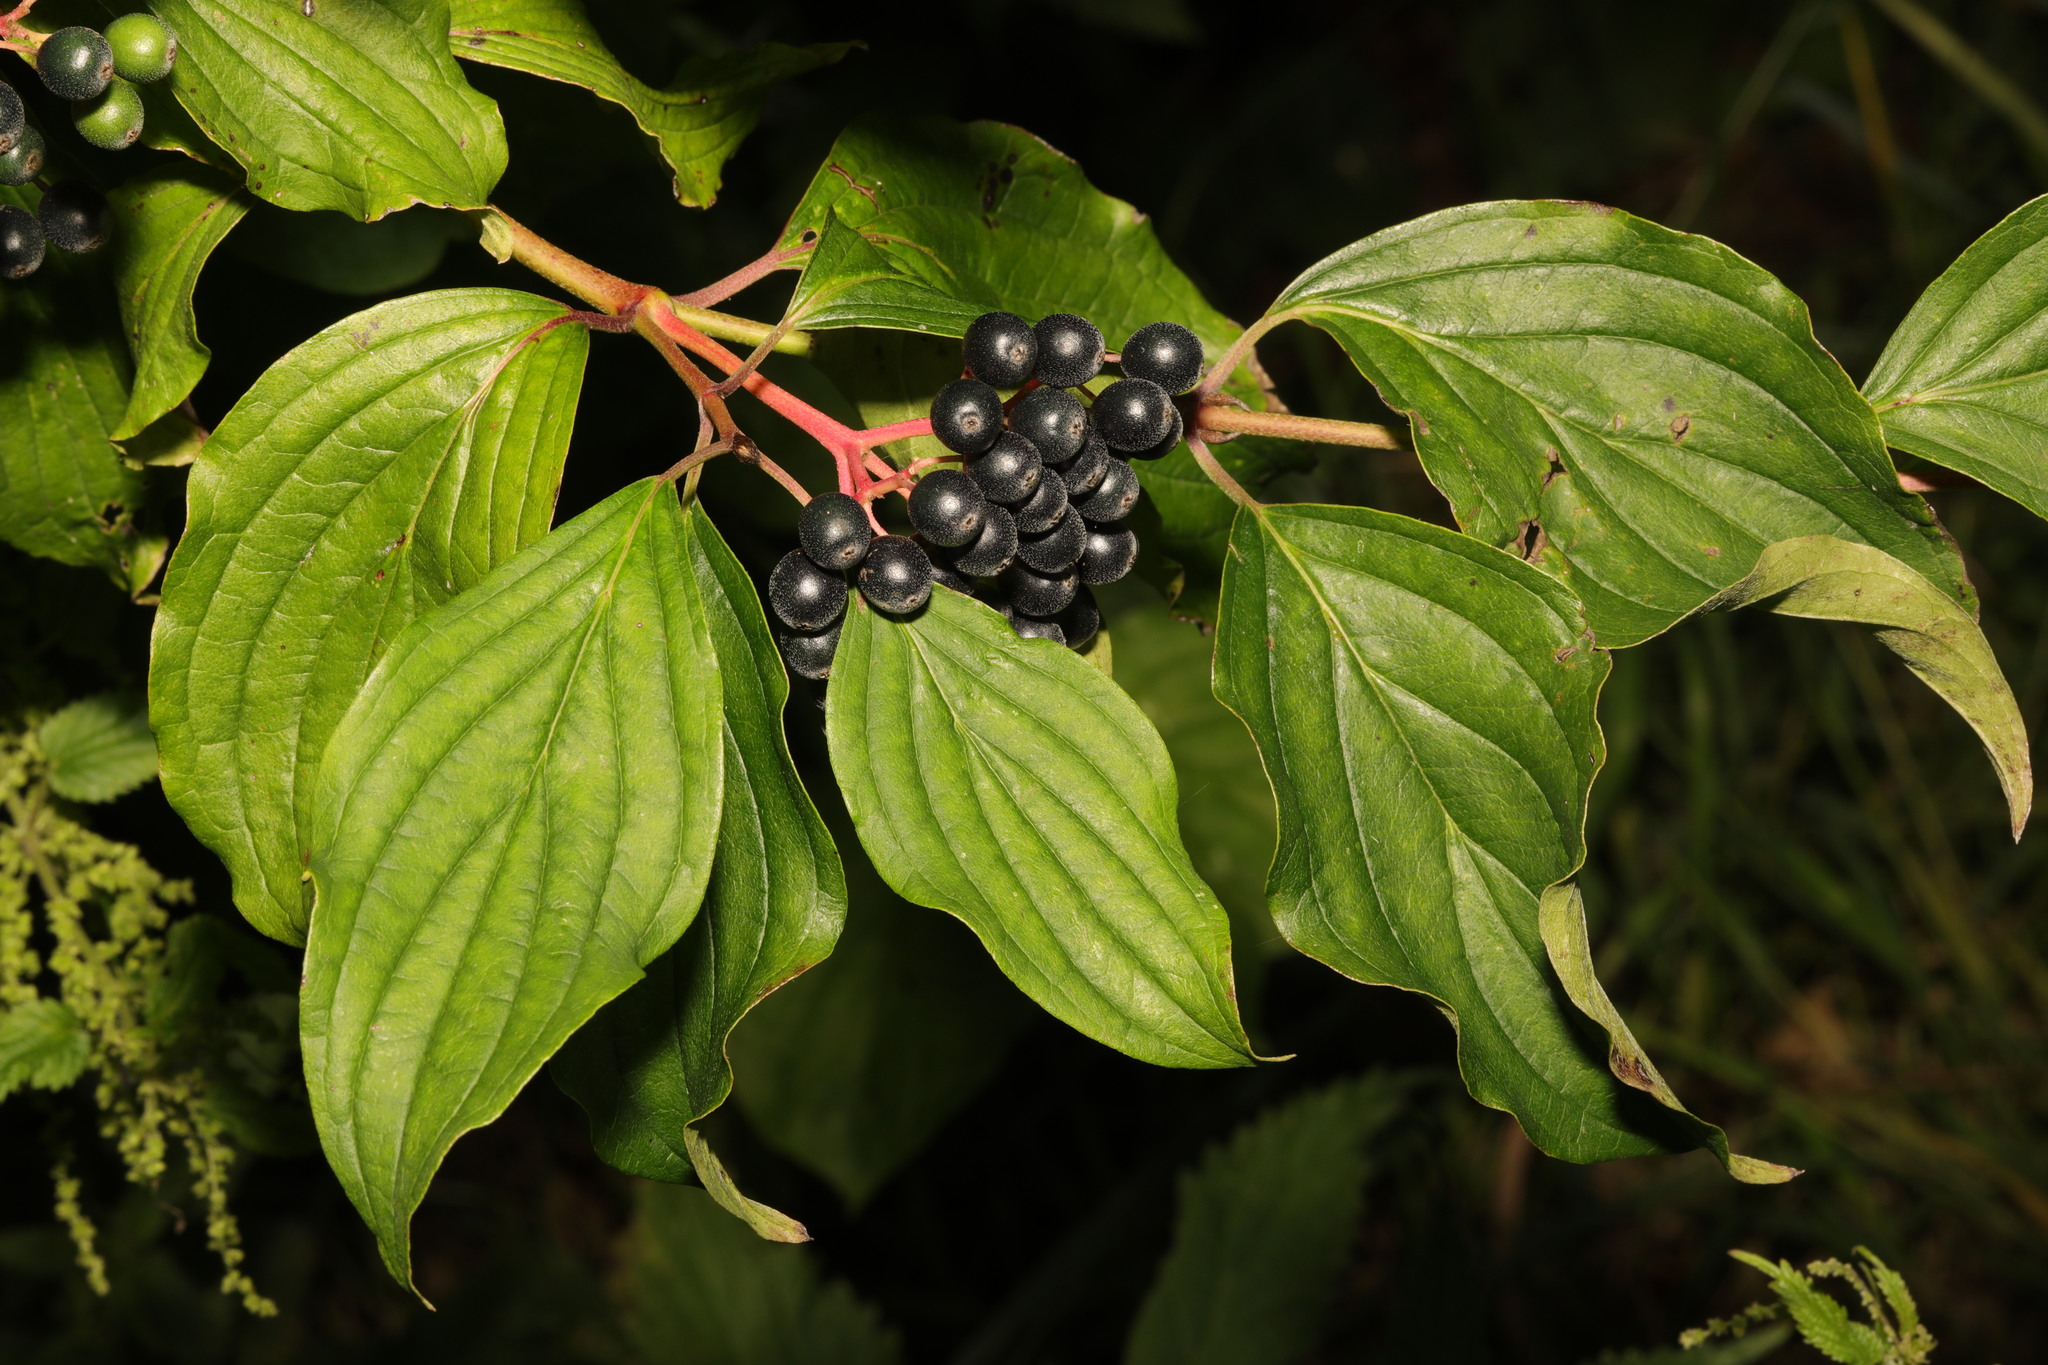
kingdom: Plantae
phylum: Tracheophyta
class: Magnoliopsida
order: Cornales
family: Cornaceae
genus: Cornus
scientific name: Cornus sanguinea
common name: Dogwood
